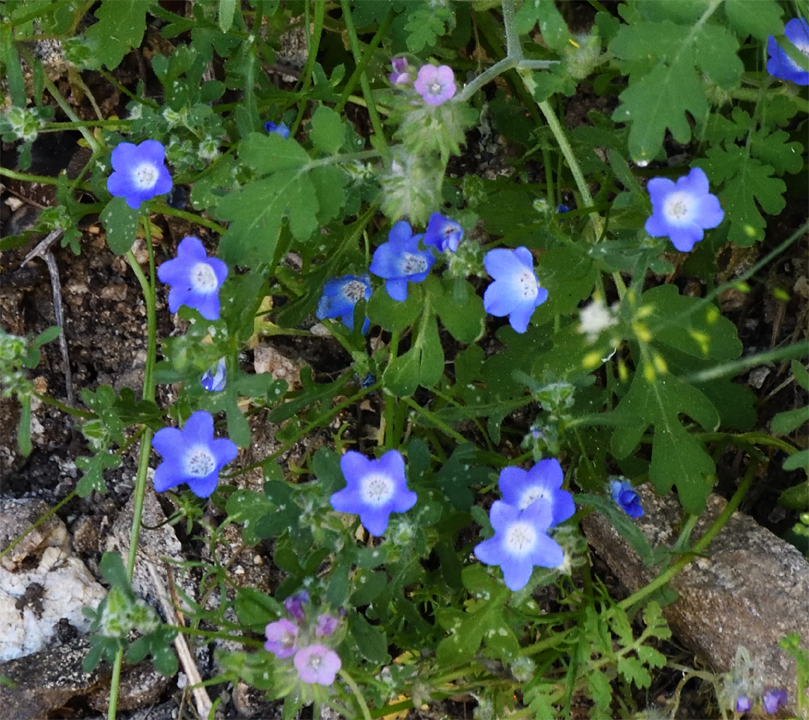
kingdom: Plantae
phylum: Tracheophyta
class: Magnoliopsida
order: Boraginales
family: Hydrophyllaceae
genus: Nemophila
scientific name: Nemophila menziesii
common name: Baby's-blue-eyes
